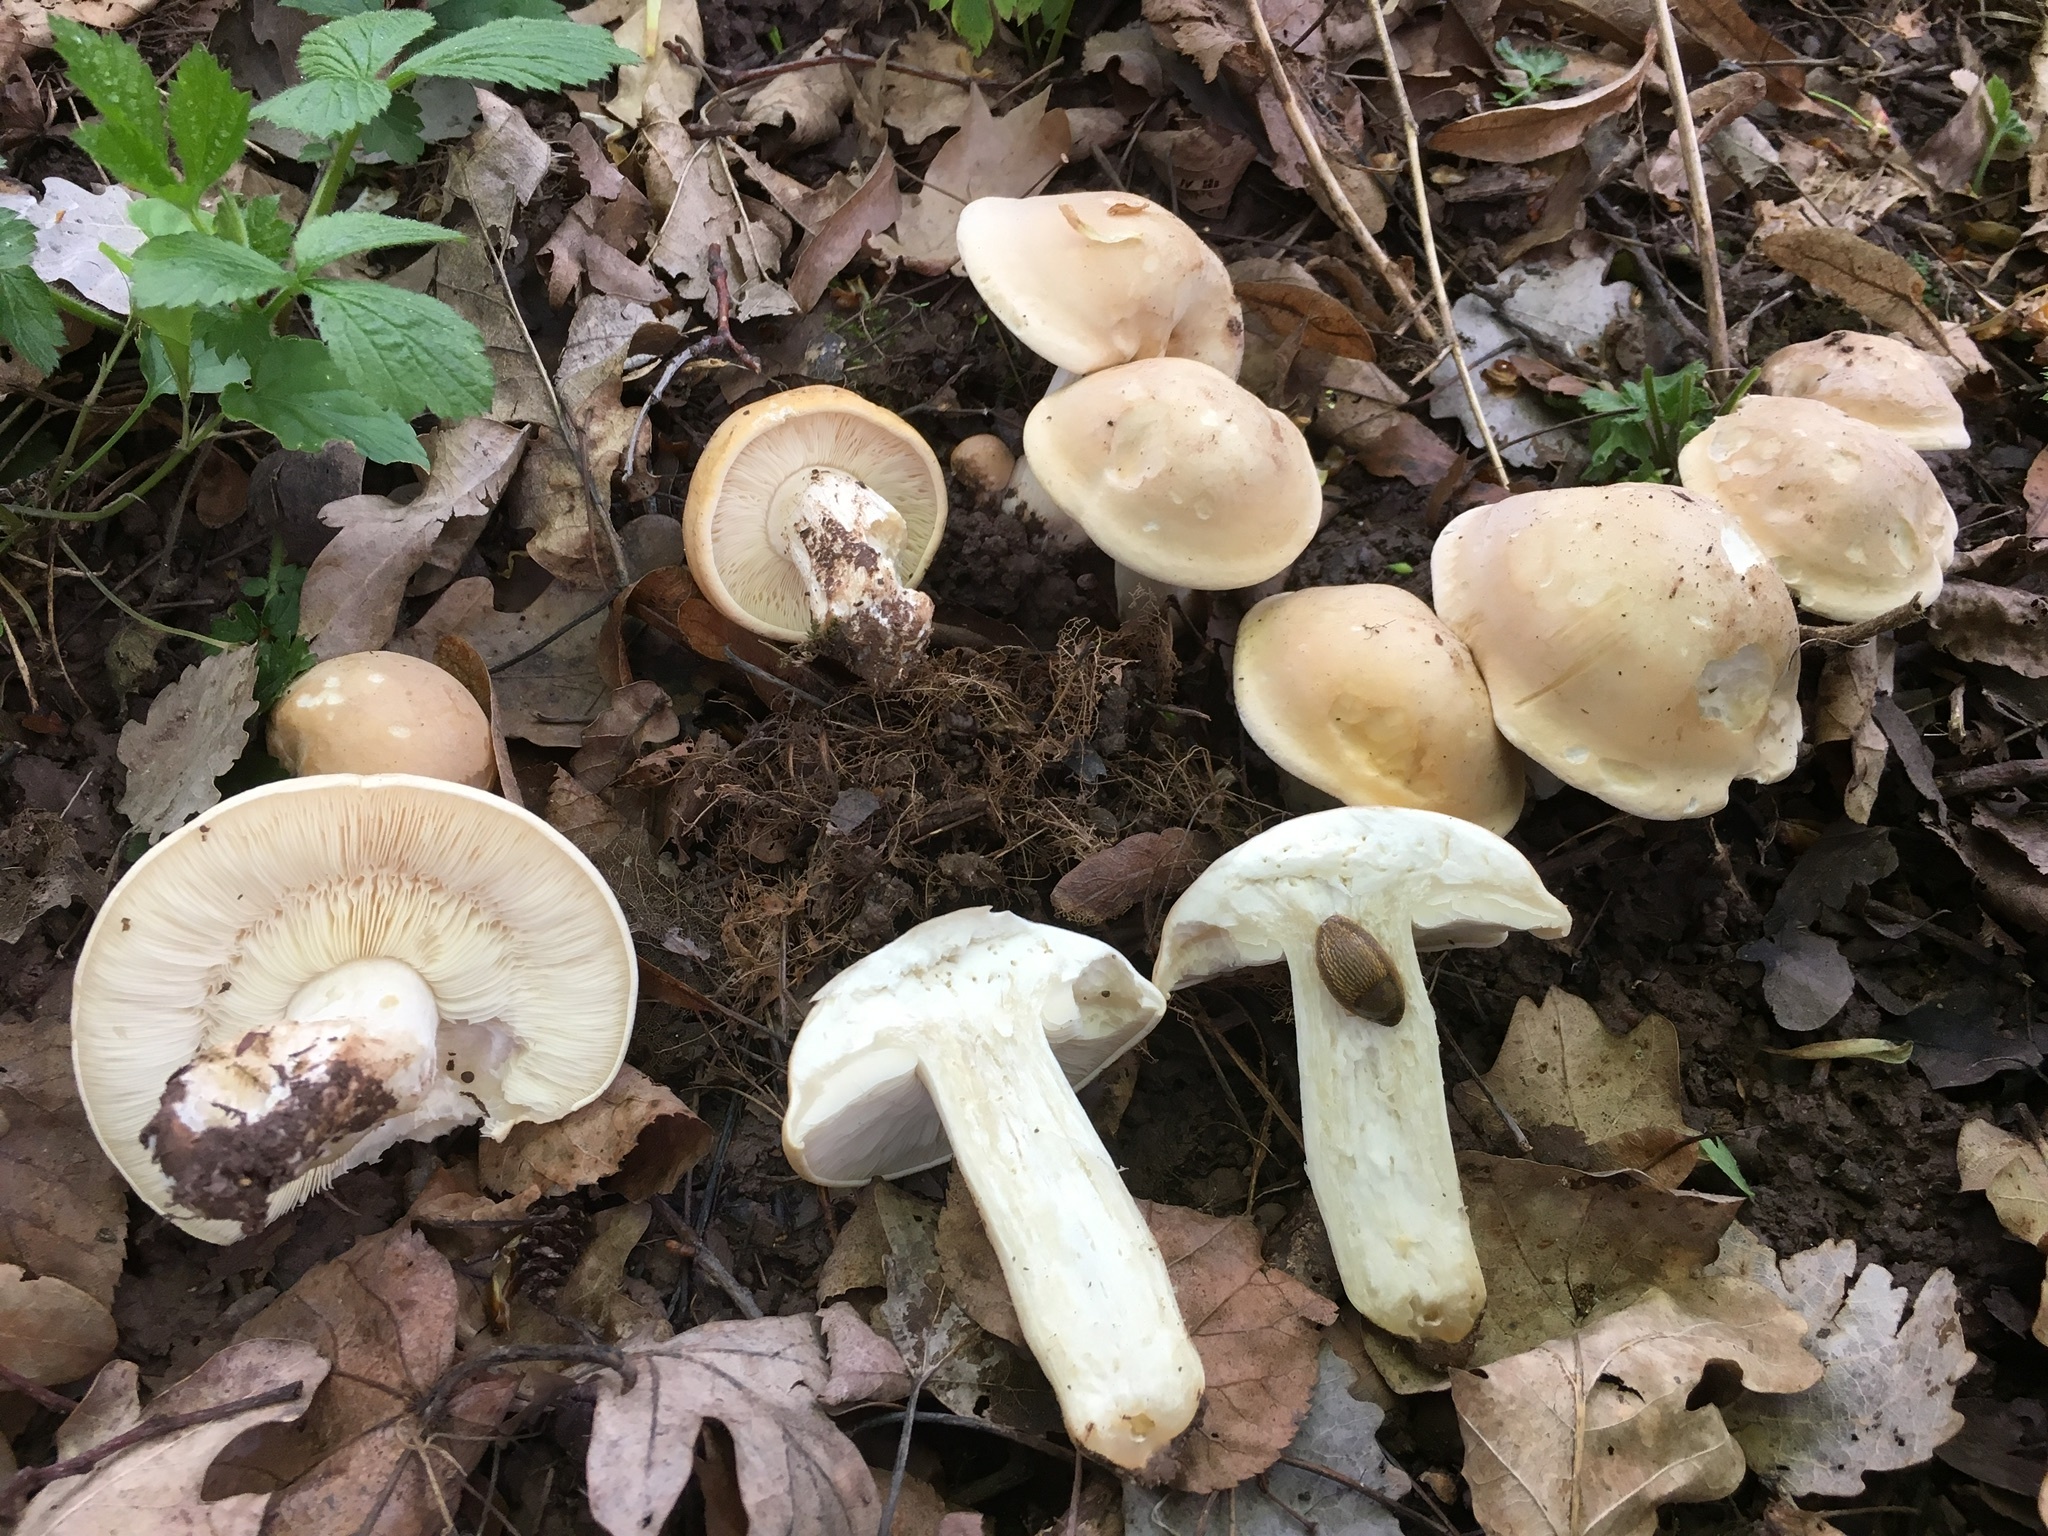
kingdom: Fungi
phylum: Basidiomycota
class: Agaricomycetes
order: Agaricales
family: Lyophyllaceae
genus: Calocybe
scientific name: Calocybe gambosa
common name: St. george's mushroom
